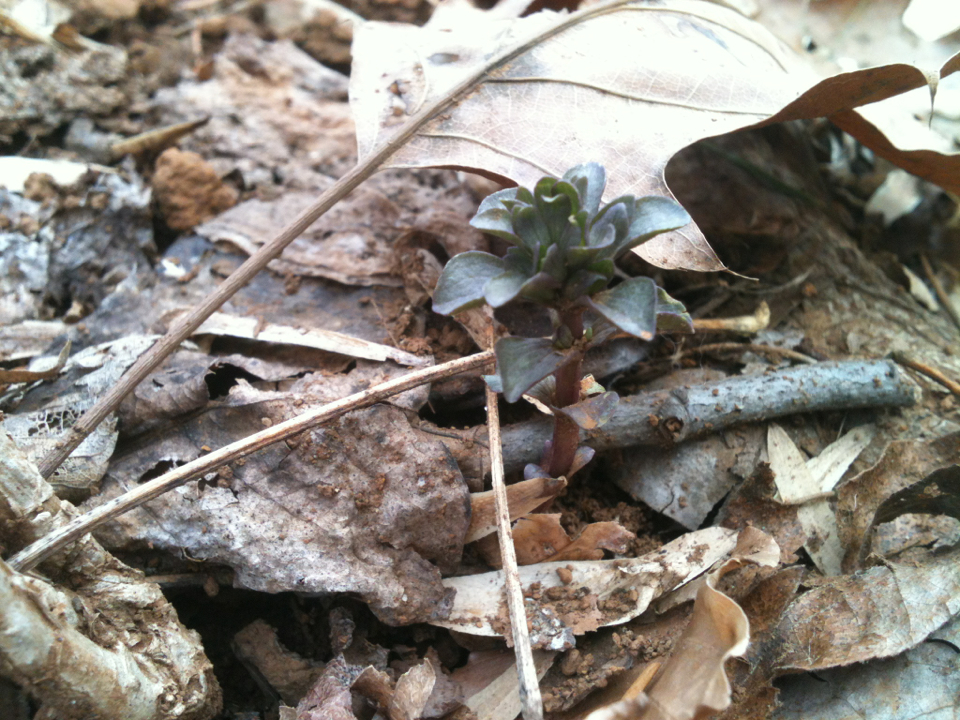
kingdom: Plantae
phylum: Tracheophyta
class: Magnoliopsida
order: Gentianales
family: Gentianaceae
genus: Obolaria
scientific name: Obolaria virginica
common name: Pennywort
